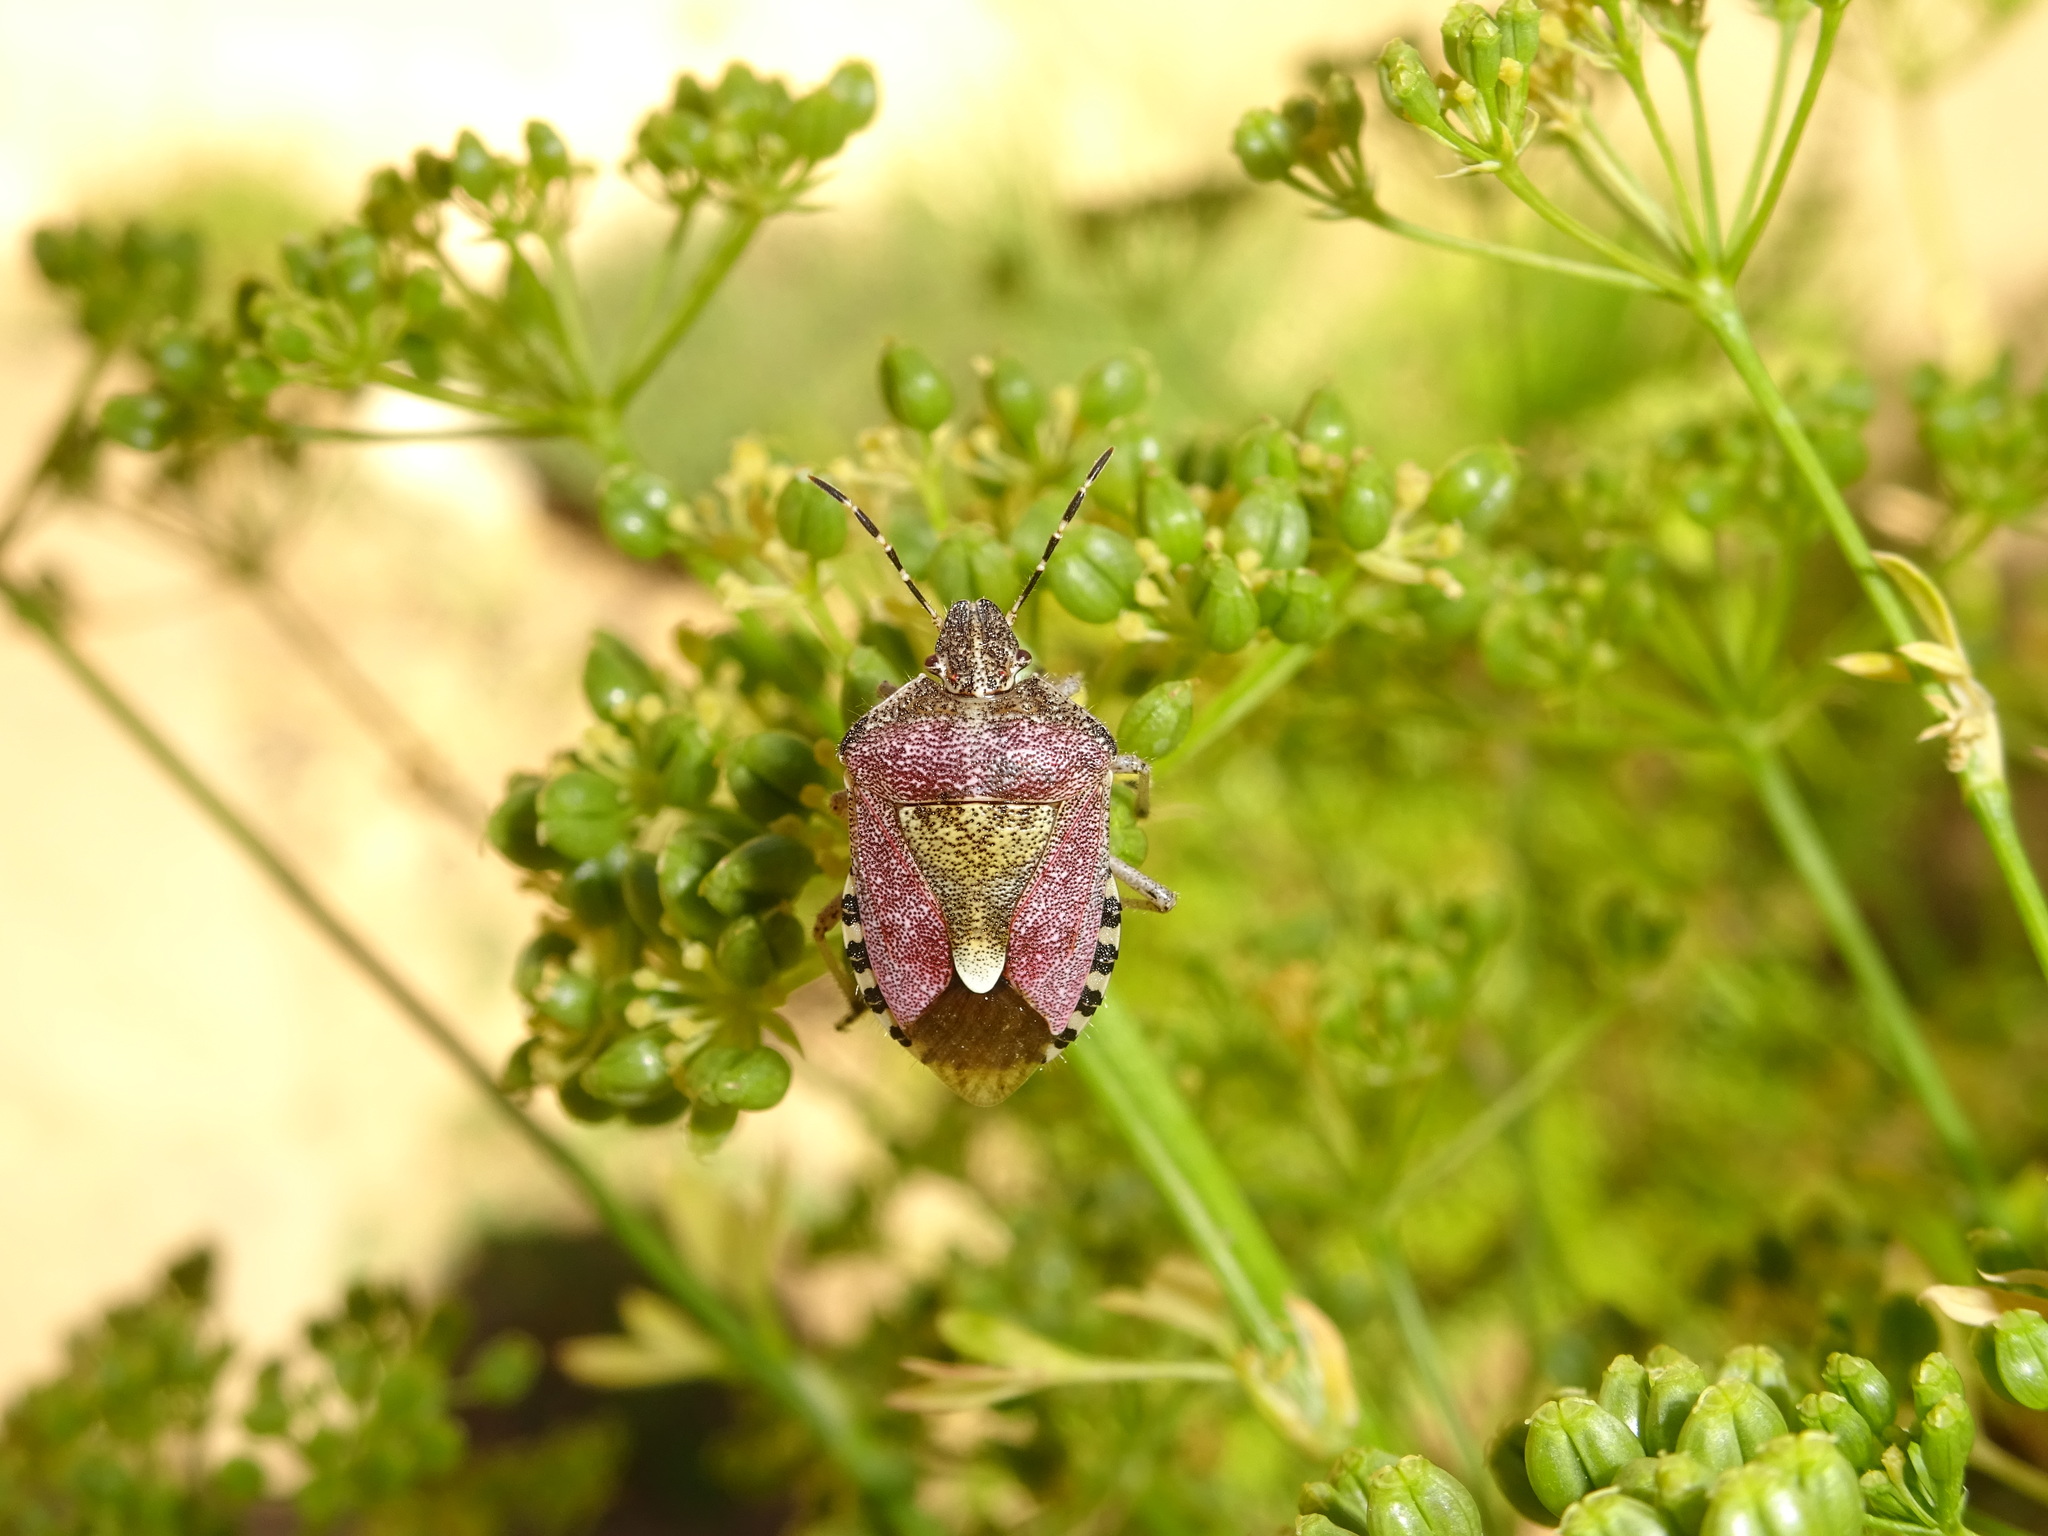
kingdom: Animalia
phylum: Arthropoda
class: Insecta
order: Hemiptera
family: Pentatomidae
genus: Dolycoris
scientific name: Dolycoris baccarum
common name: Sloe bug
